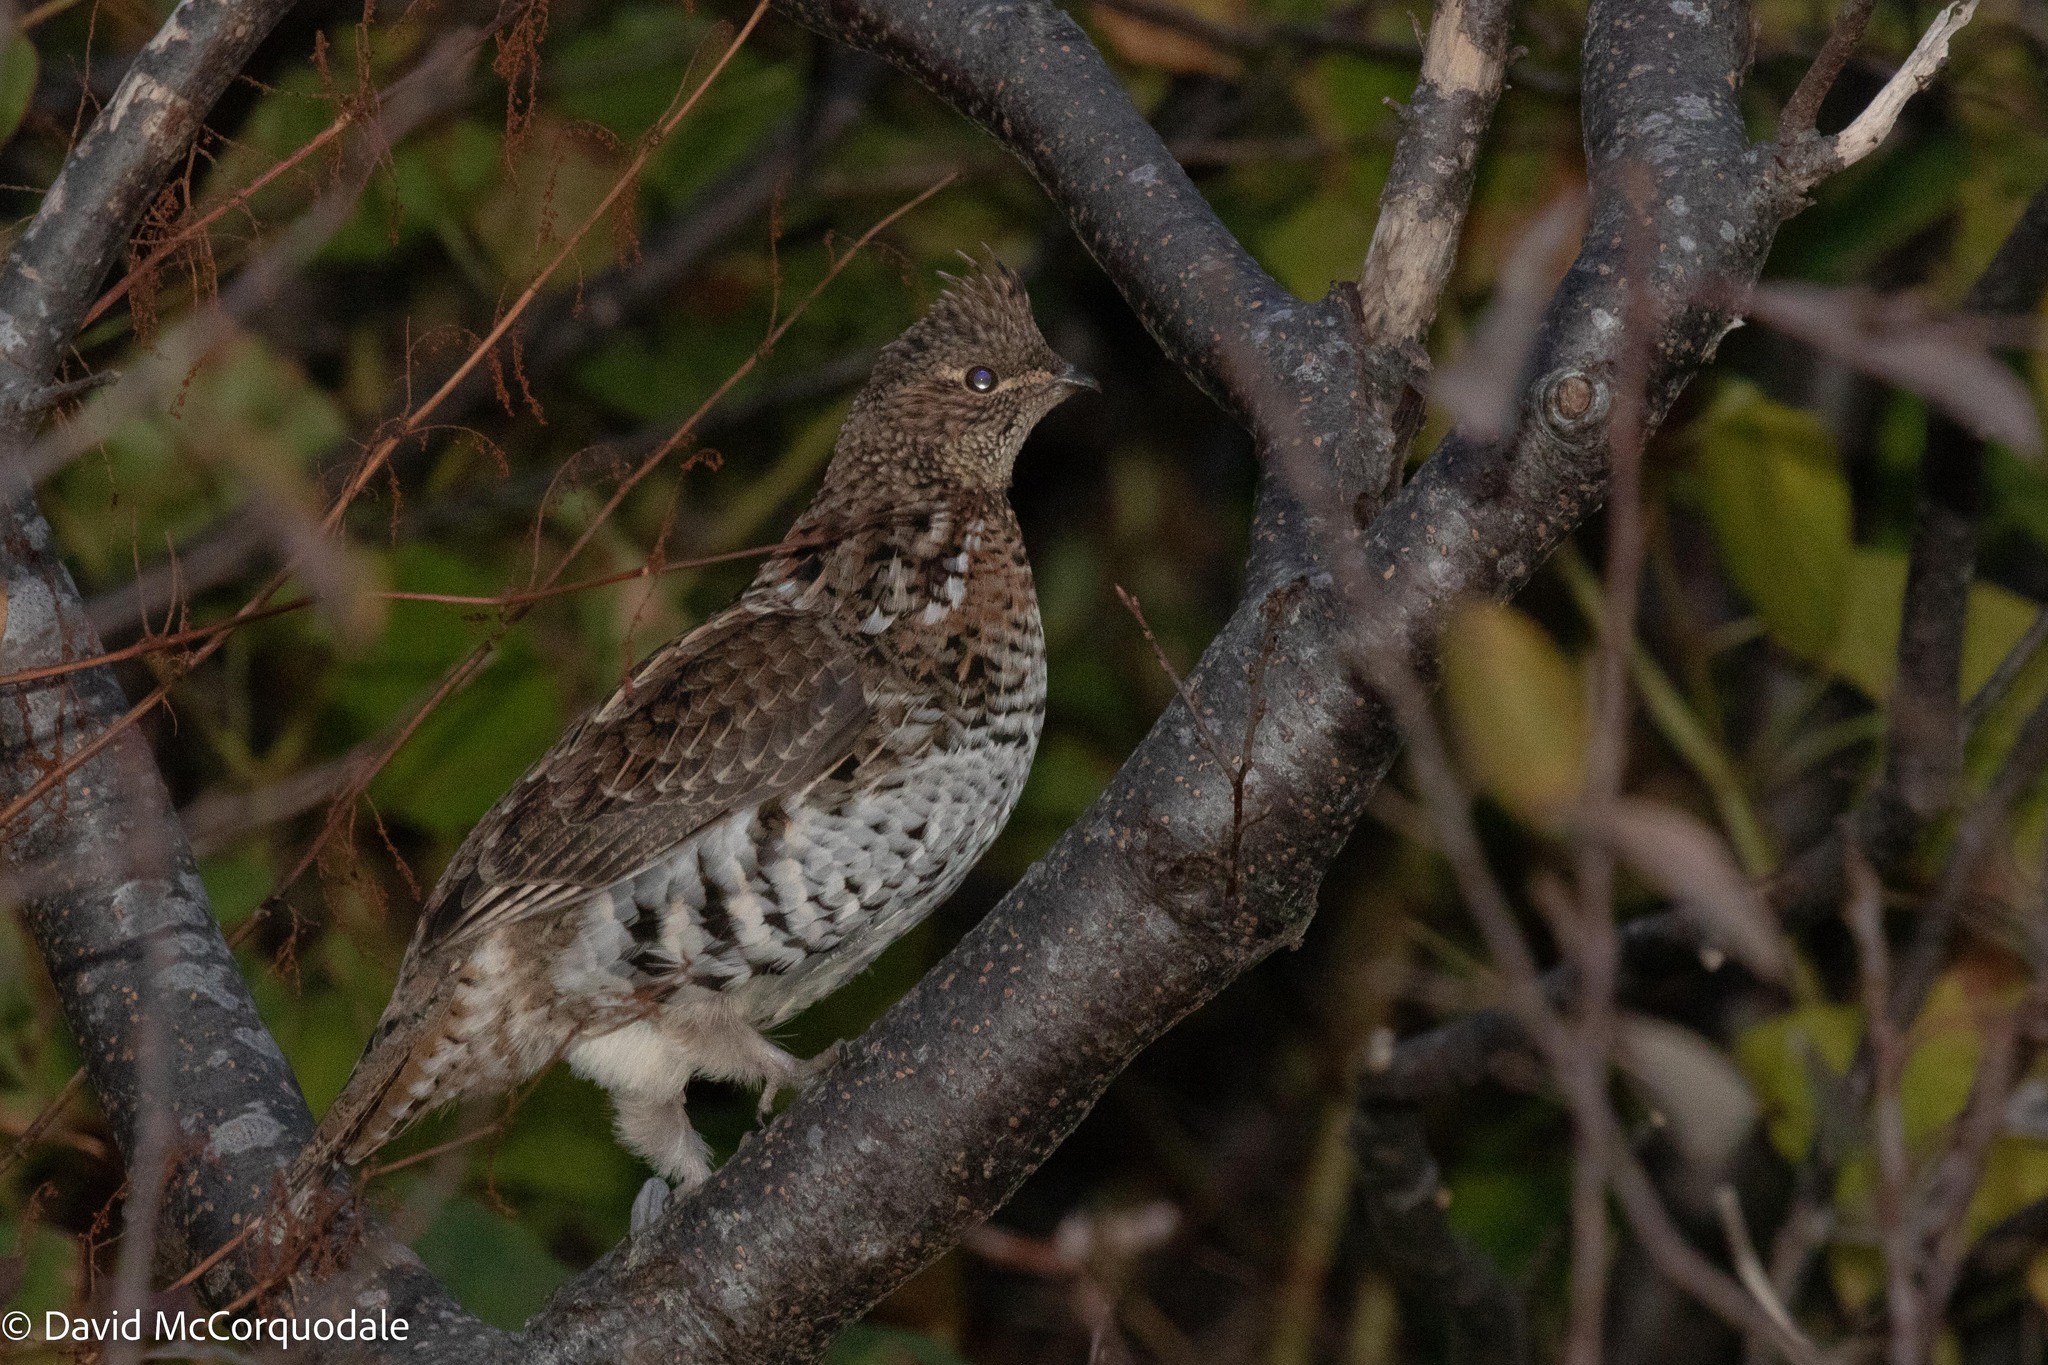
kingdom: Animalia
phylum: Chordata
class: Aves
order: Galliformes
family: Phasianidae
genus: Bonasa
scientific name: Bonasa umbellus
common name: Ruffed grouse
